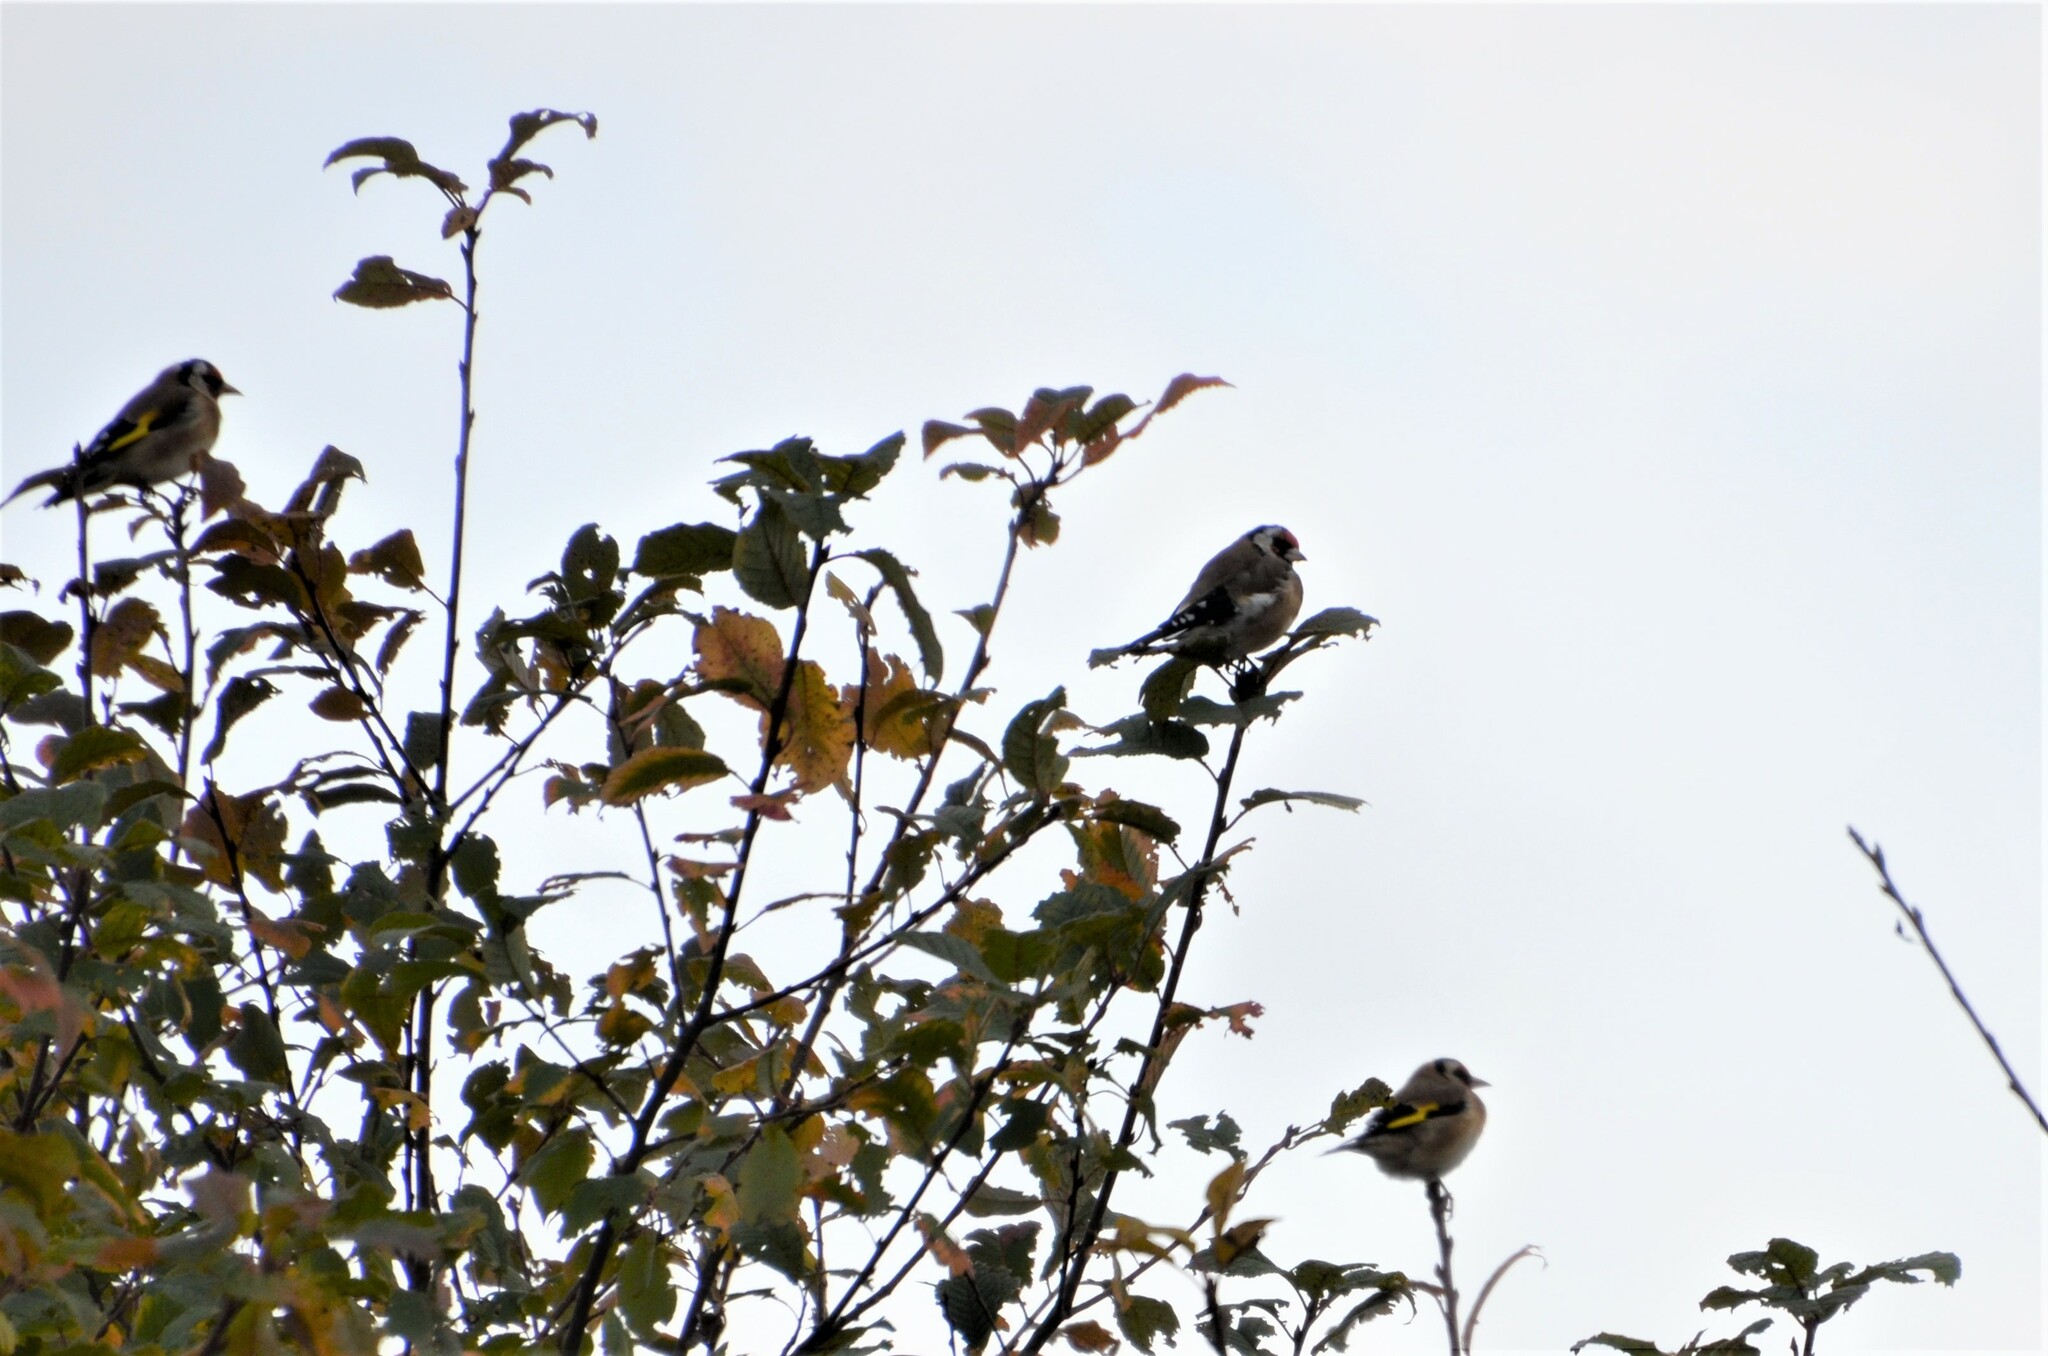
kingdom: Animalia
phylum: Chordata
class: Aves
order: Passeriformes
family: Fringillidae
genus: Carduelis
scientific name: Carduelis carduelis
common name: European goldfinch
